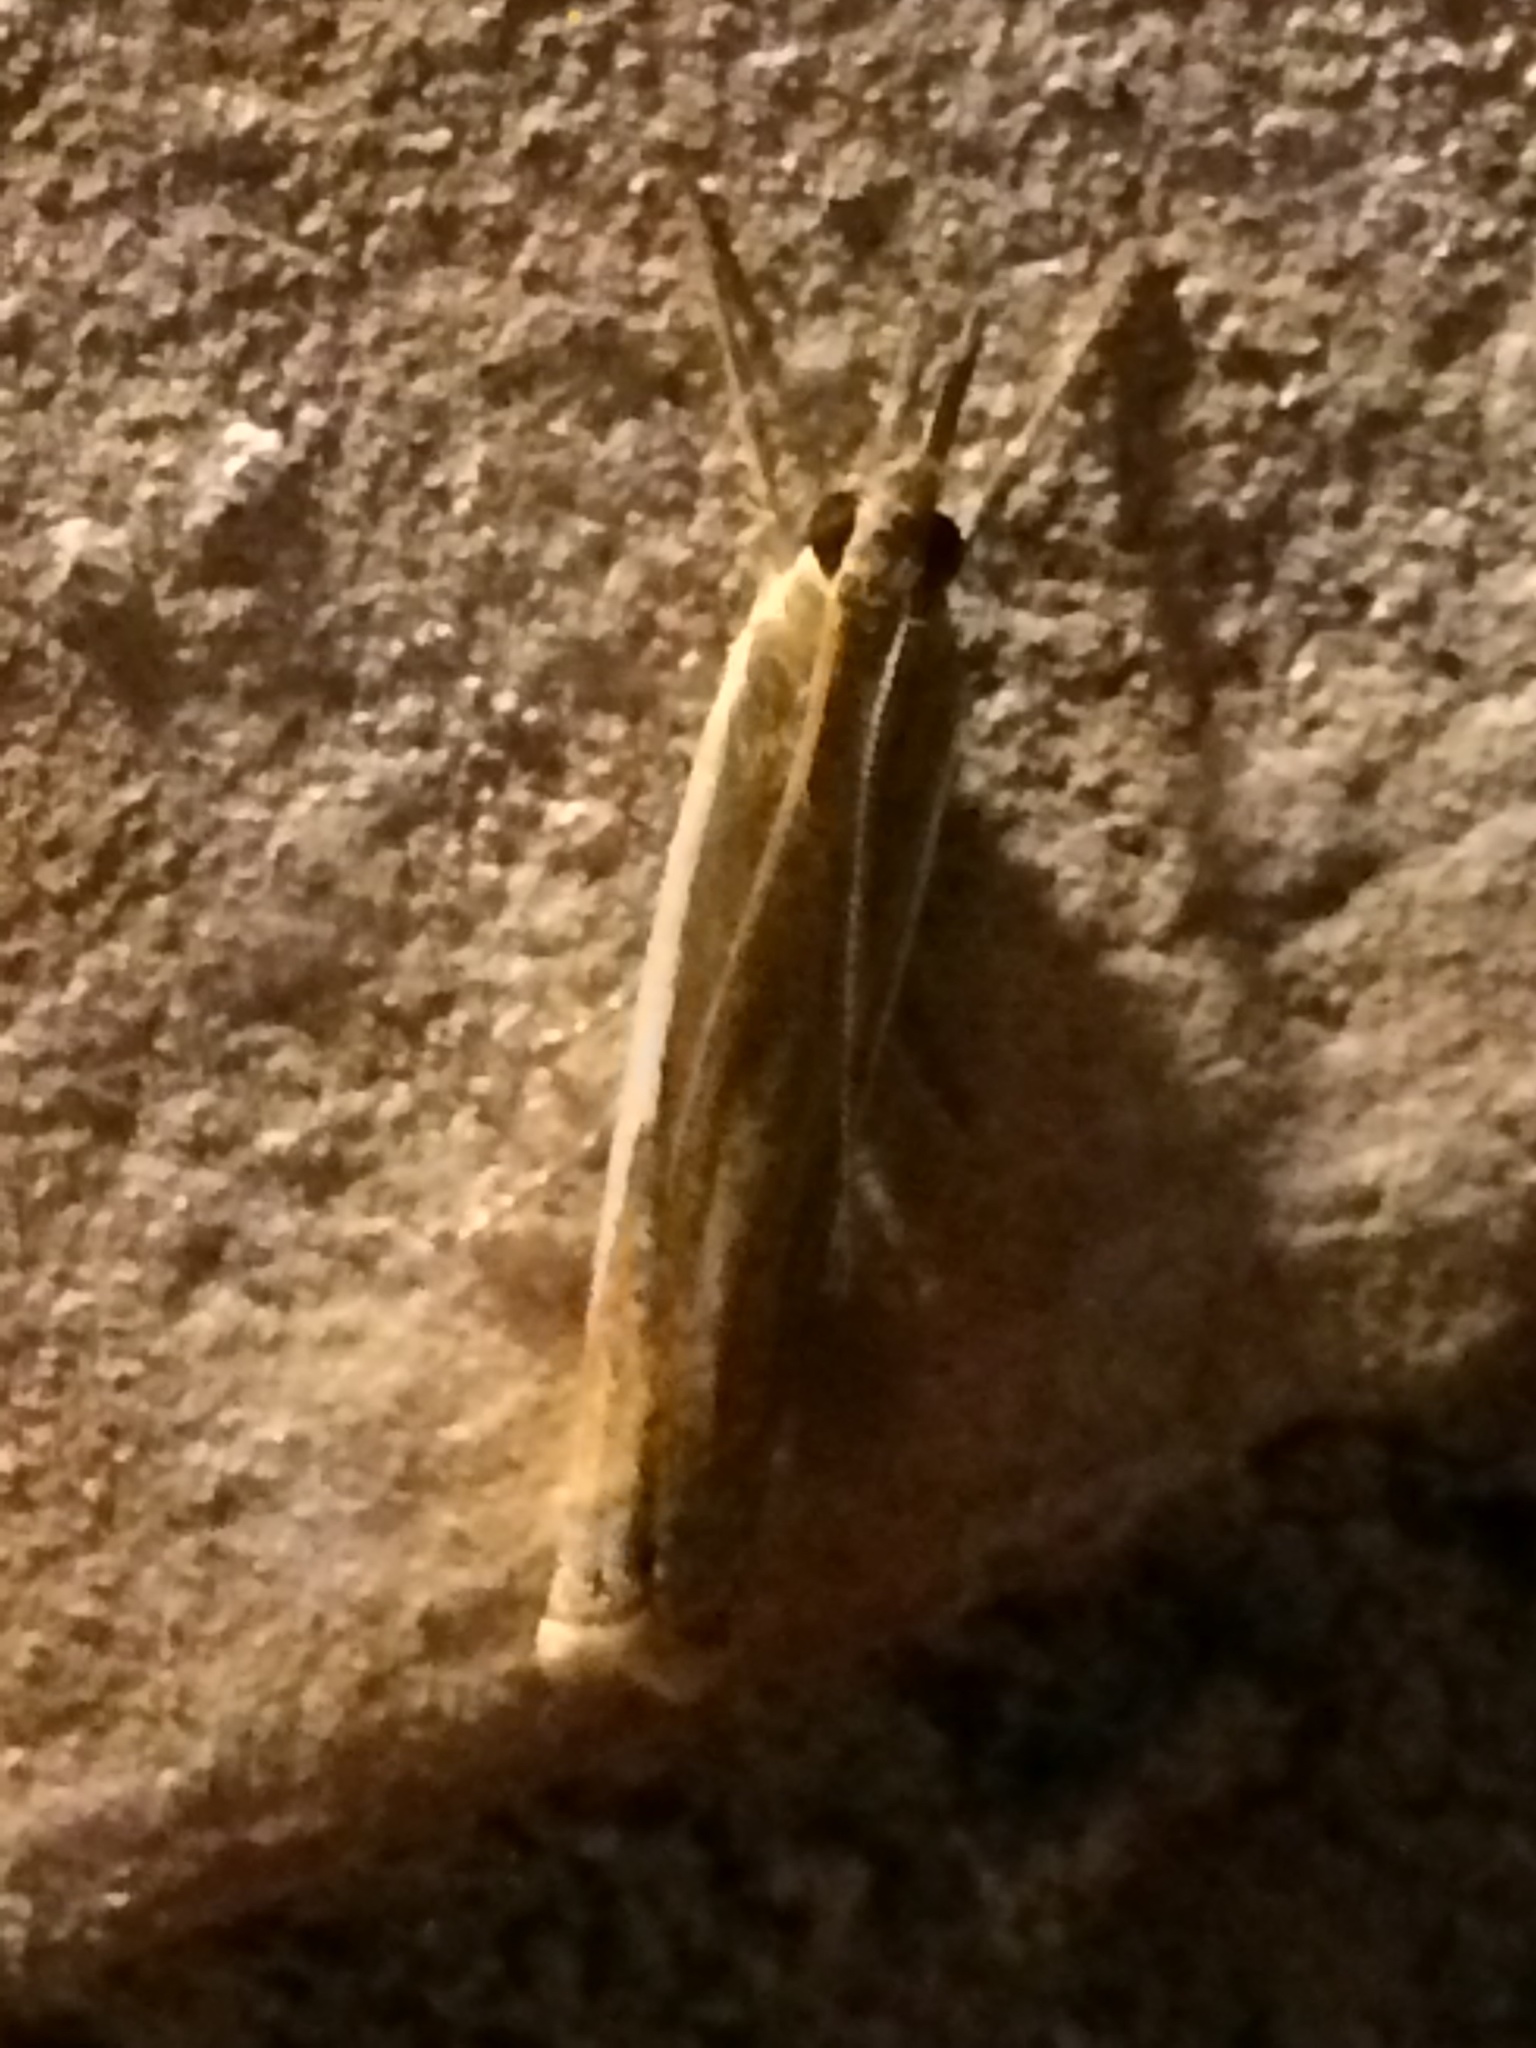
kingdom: Animalia
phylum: Arthropoda
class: Insecta
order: Lepidoptera
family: Crambidae
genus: Crambus
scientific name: Crambus praefectellus
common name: Common grass-veneer
